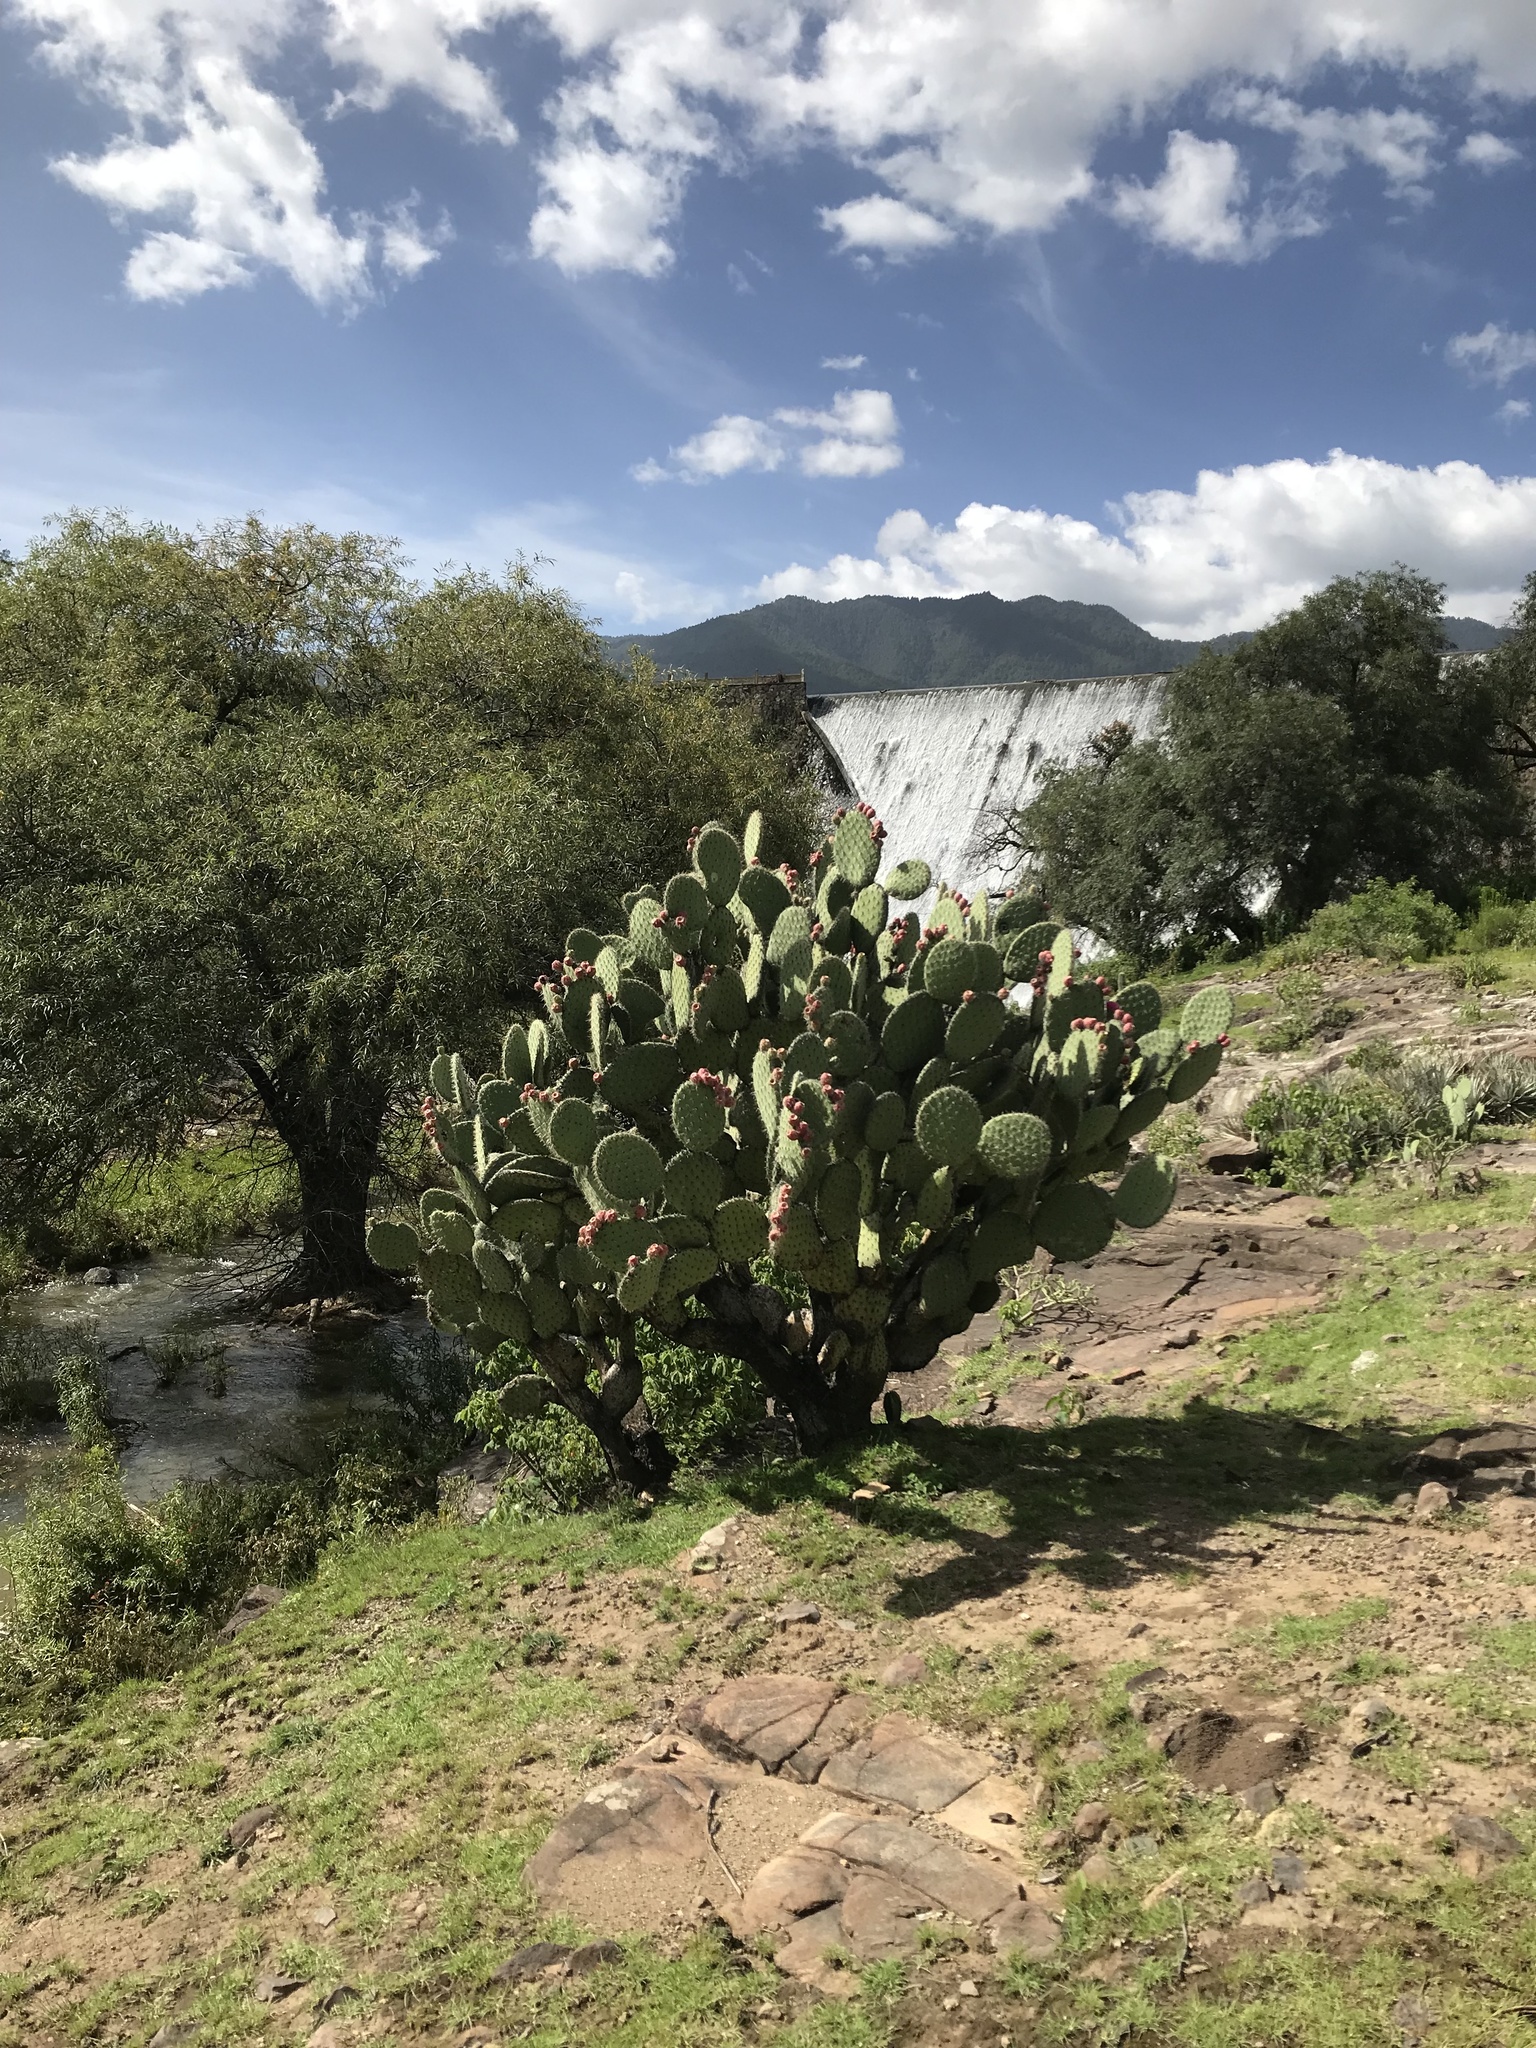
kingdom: Plantae
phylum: Tracheophyta
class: Magnoliopsida
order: Caryophyllales
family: Cactaceae
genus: Opuntia
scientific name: Opuntia pilifera
